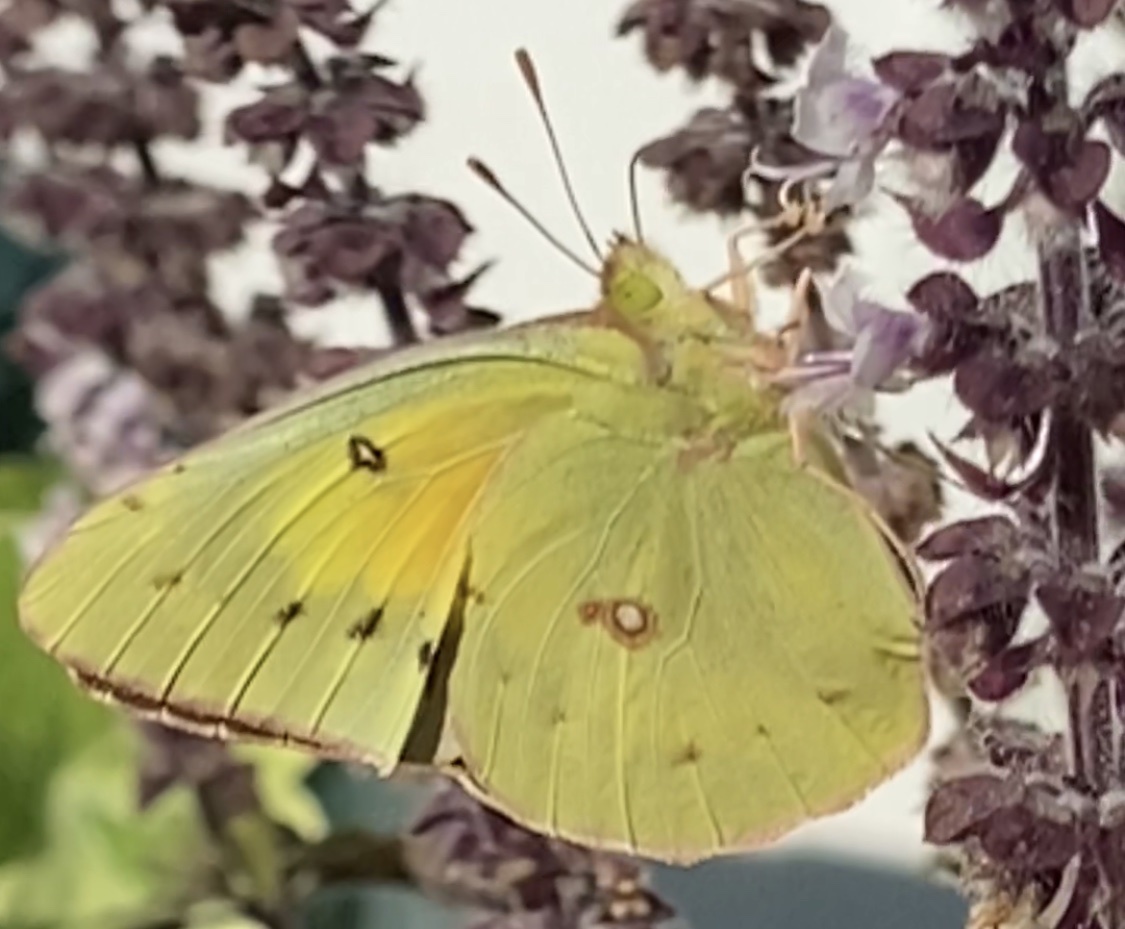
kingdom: Animalia
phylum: Arthropoda
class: Insecta
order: Lepidoptera
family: Pieridae
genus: Colias
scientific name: Colias eurytheme
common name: Alfalfa butterfly
